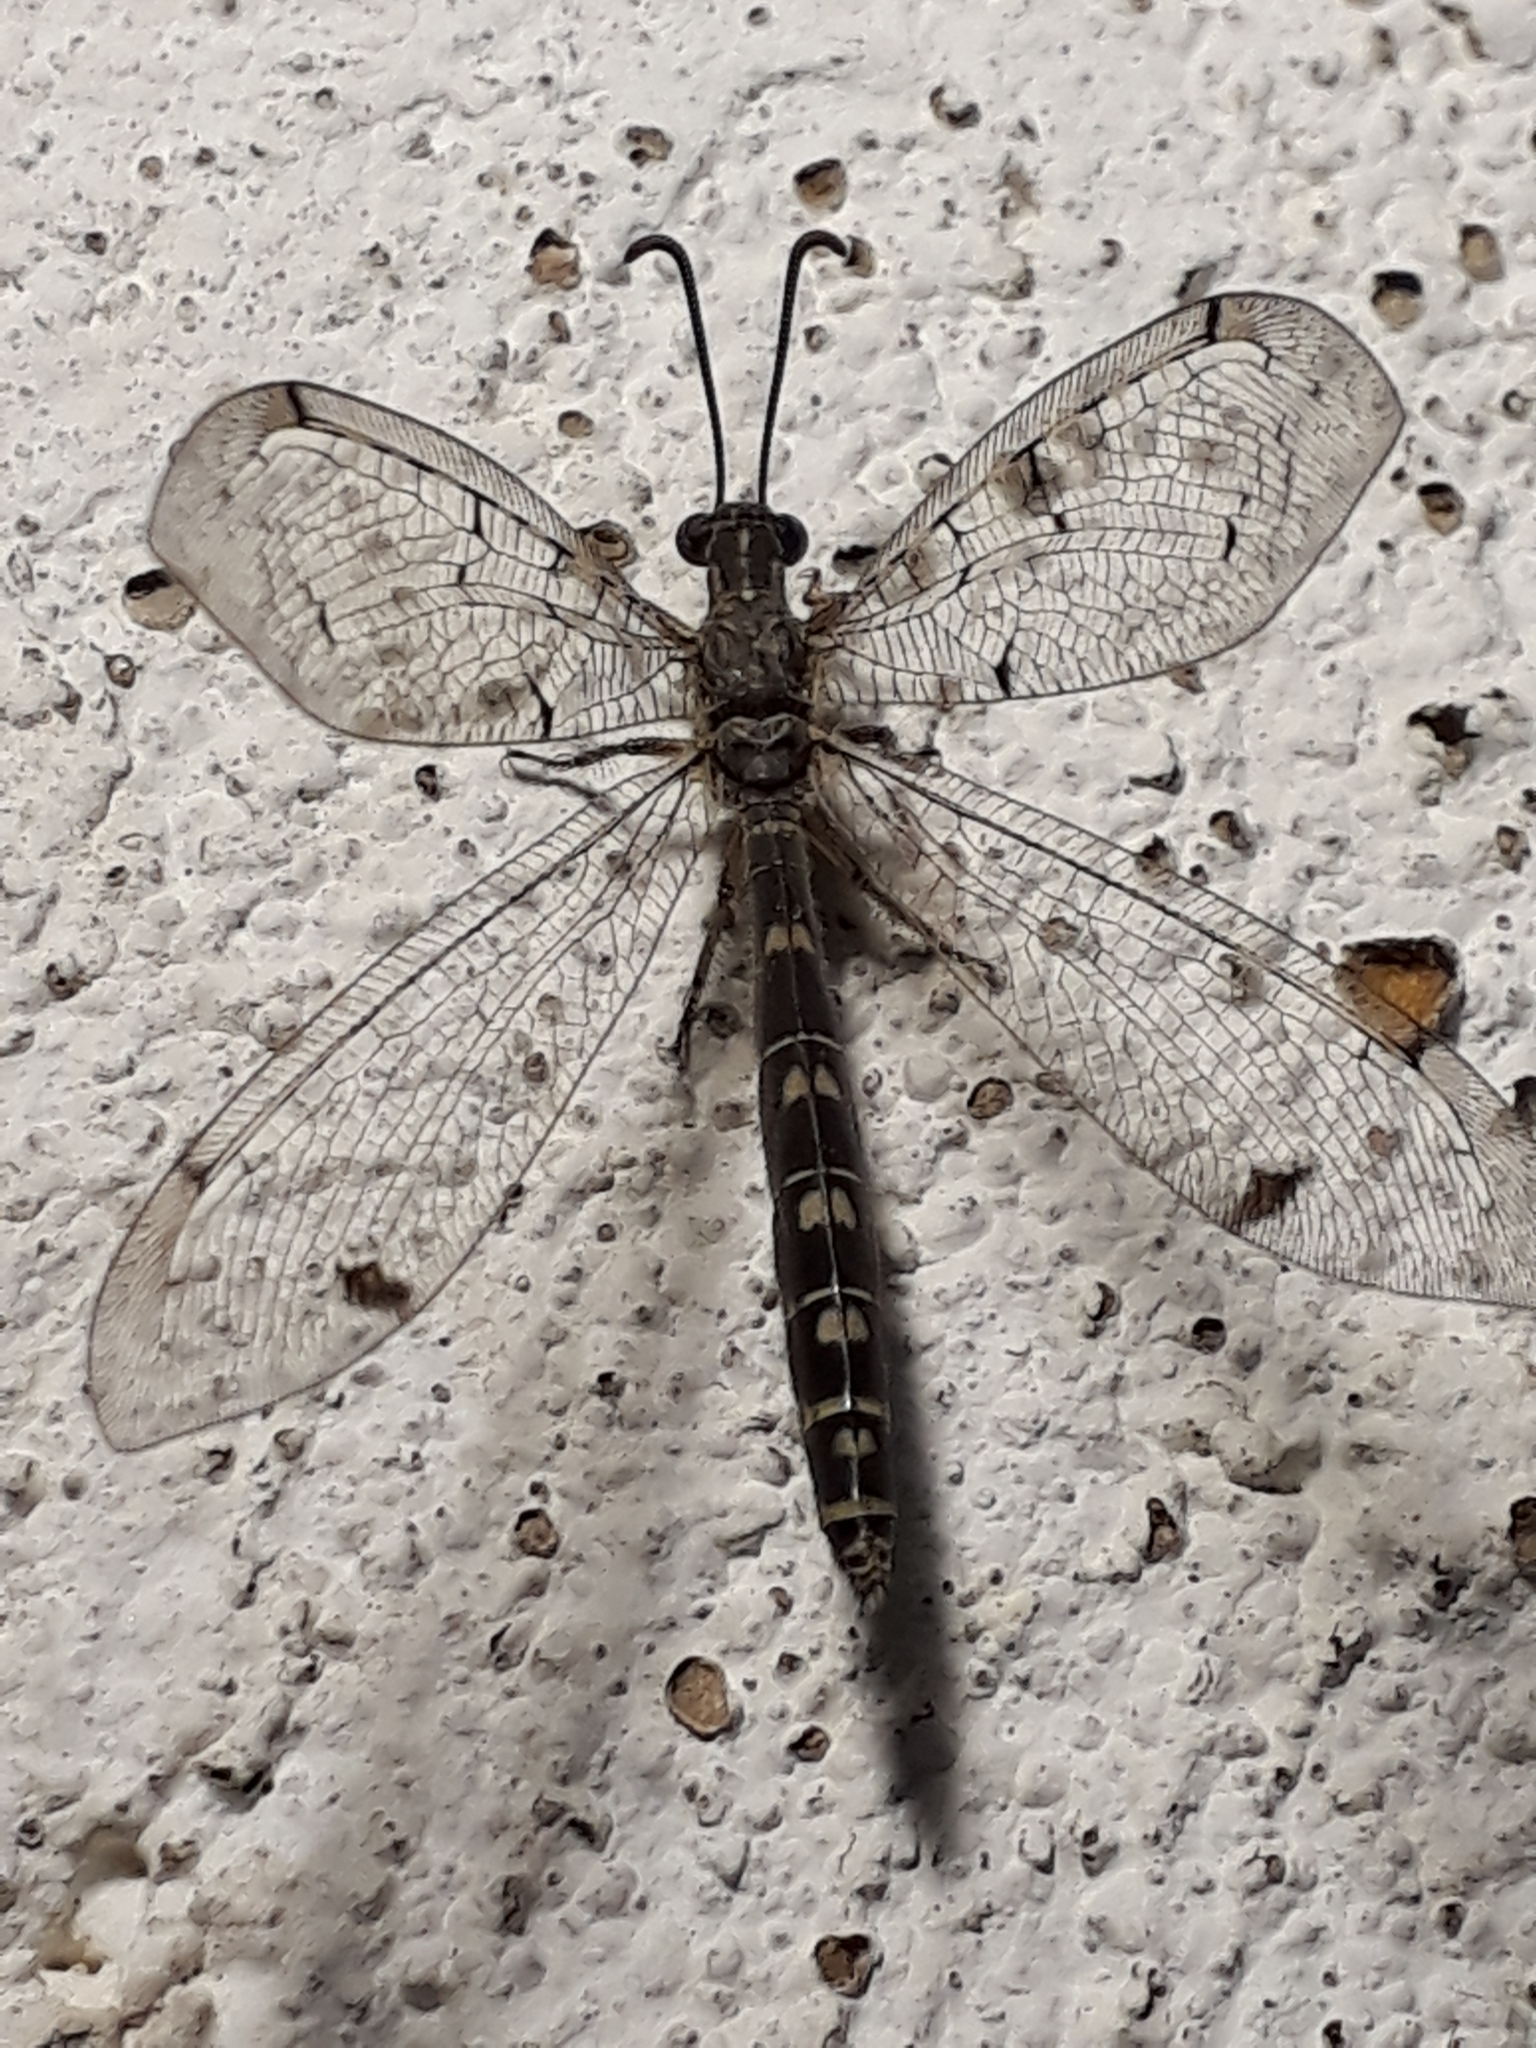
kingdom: Animalia
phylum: Arthropoda
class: Insecta
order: Neuroptera
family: Myrmeleontidae
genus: Distoleon
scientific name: Distoleon tetragrammicus
